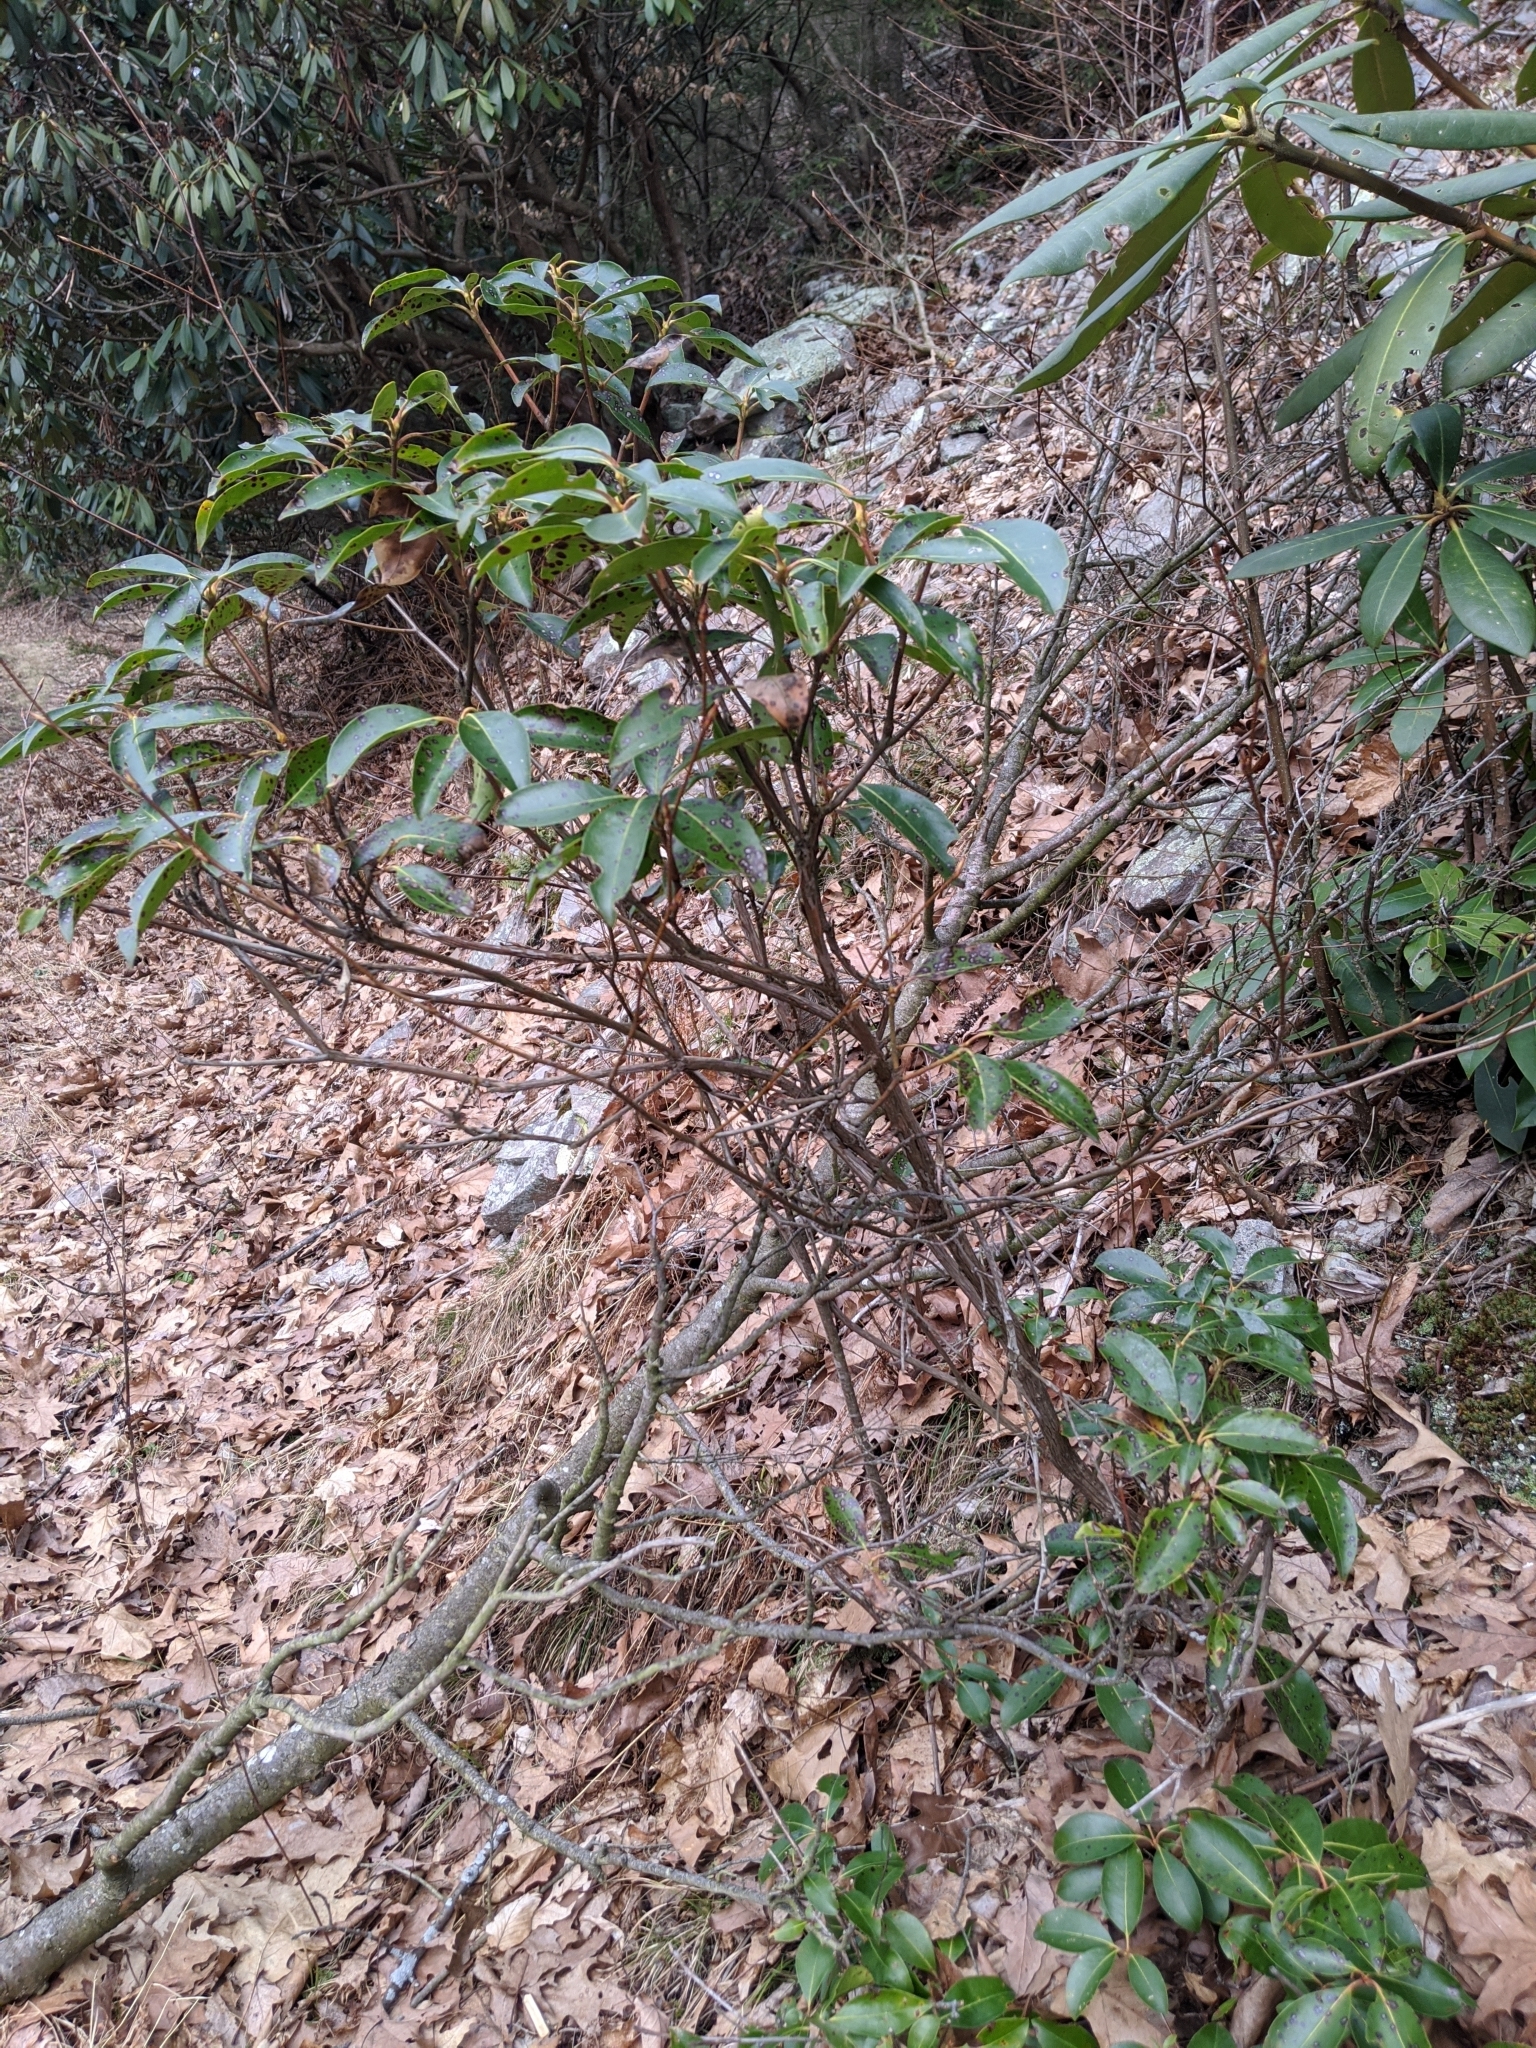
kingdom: Plantae
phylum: Tracheophyta
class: Magnoliopsida
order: Ericales
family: Ericaceae
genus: Kalmia
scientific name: Kalmia latifolia
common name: Mountain-laurel
